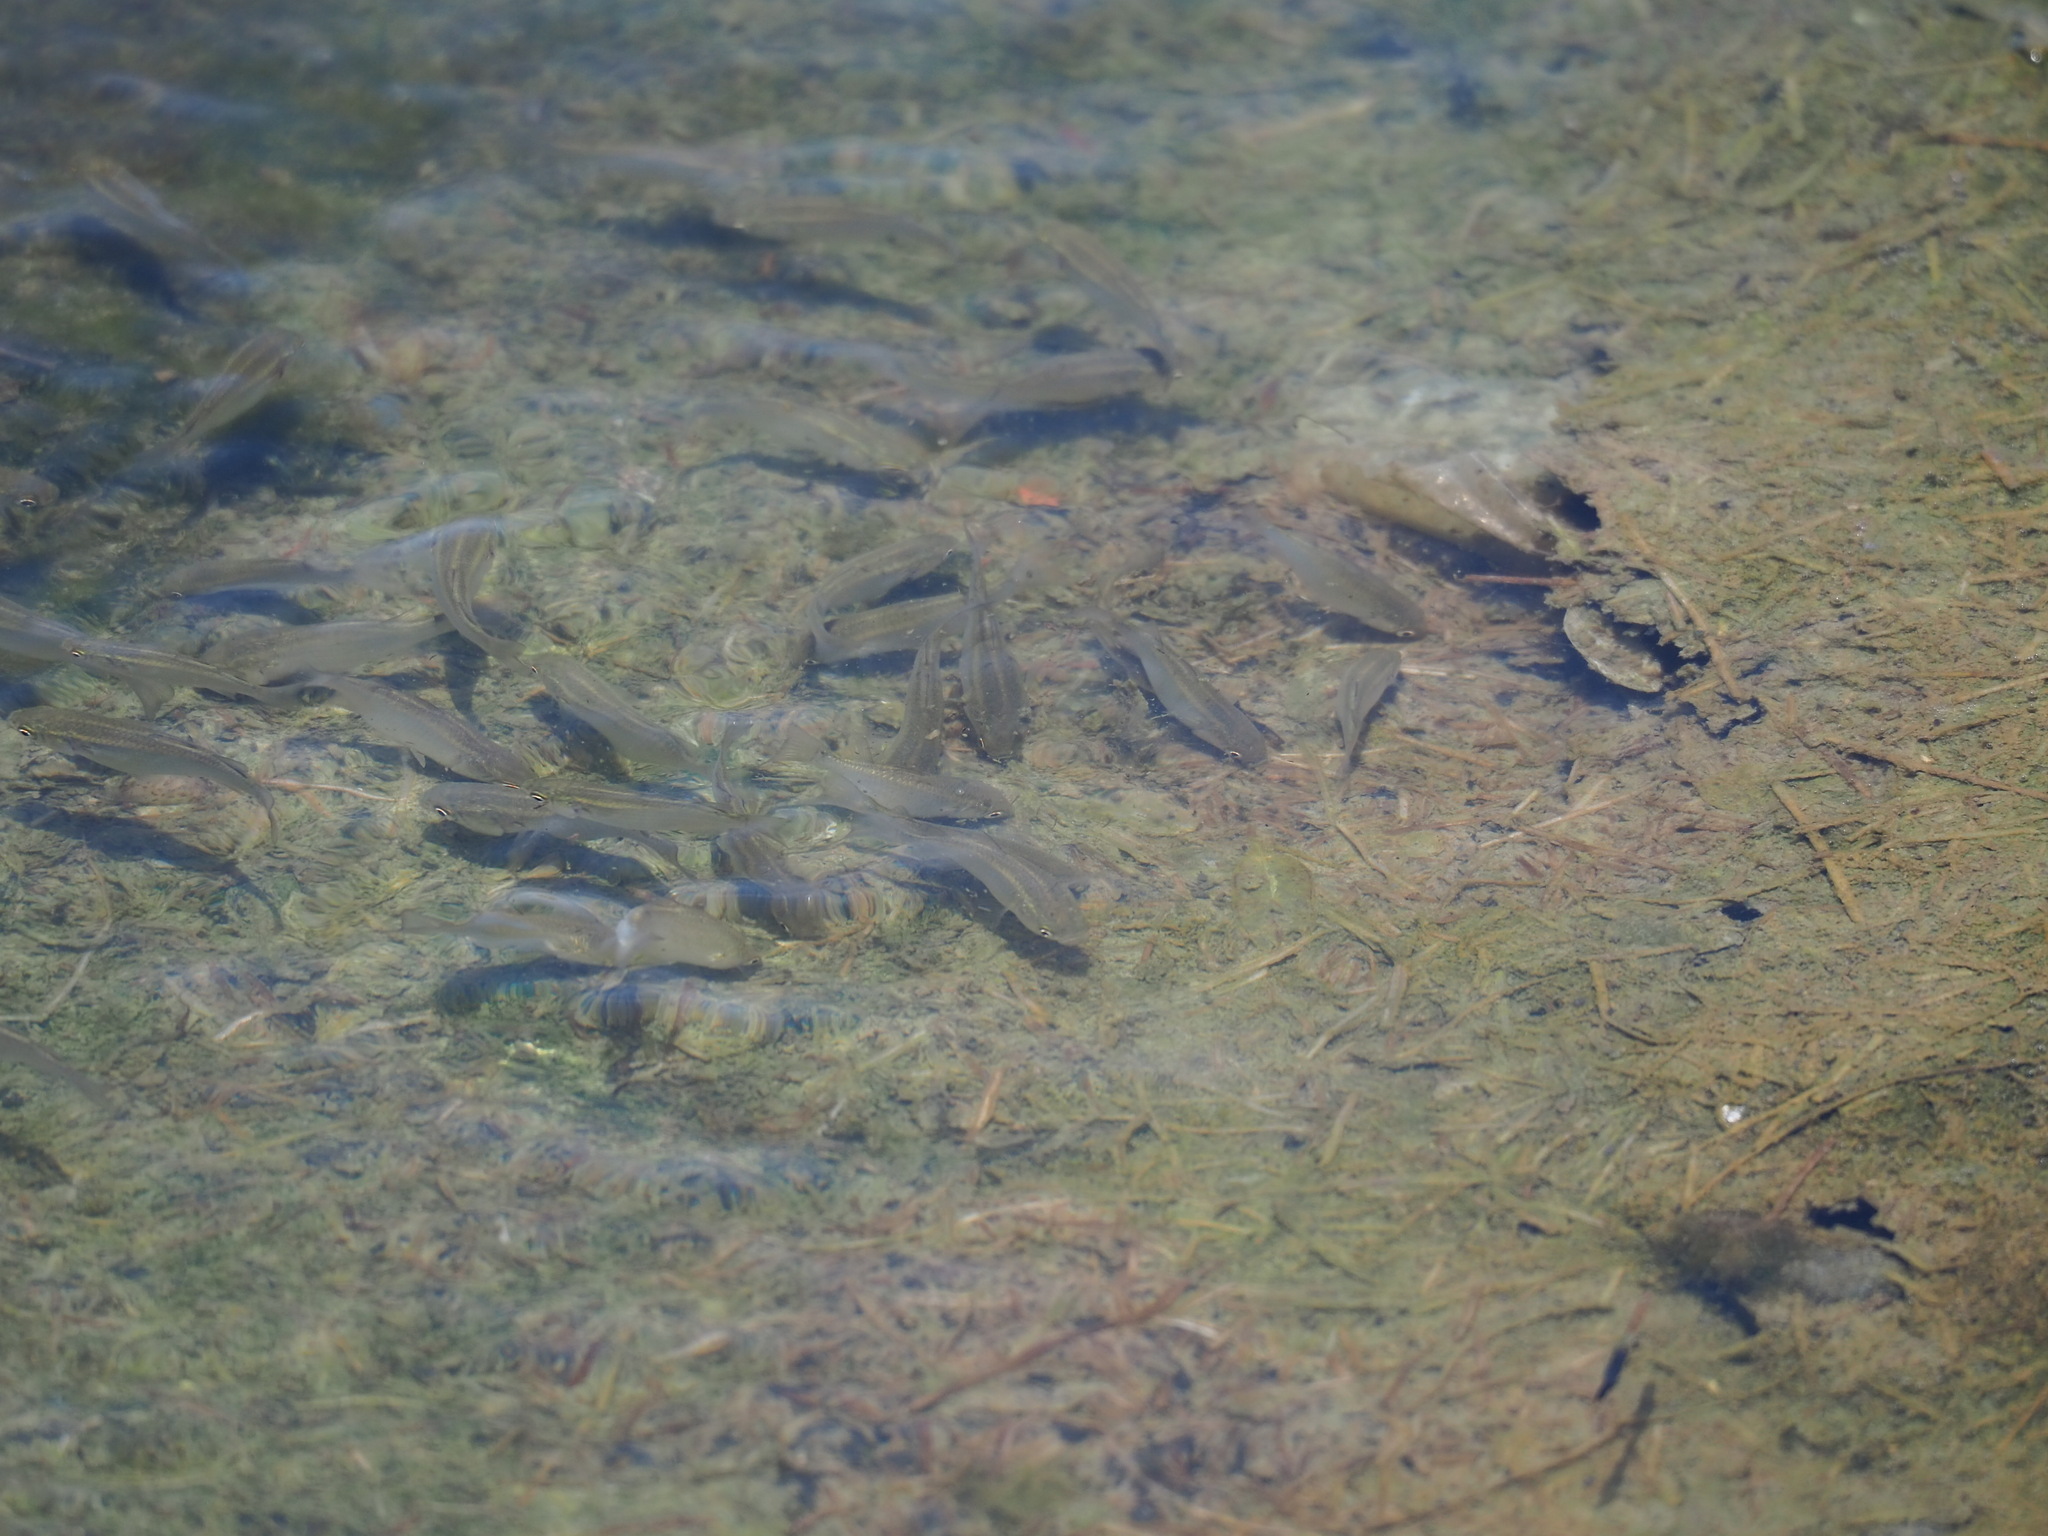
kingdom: Animalia
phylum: Chordata
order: Mugiliformes
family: Mugilidae
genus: Planiliza
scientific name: Planiliza macrolepis
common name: Largescale mullet
